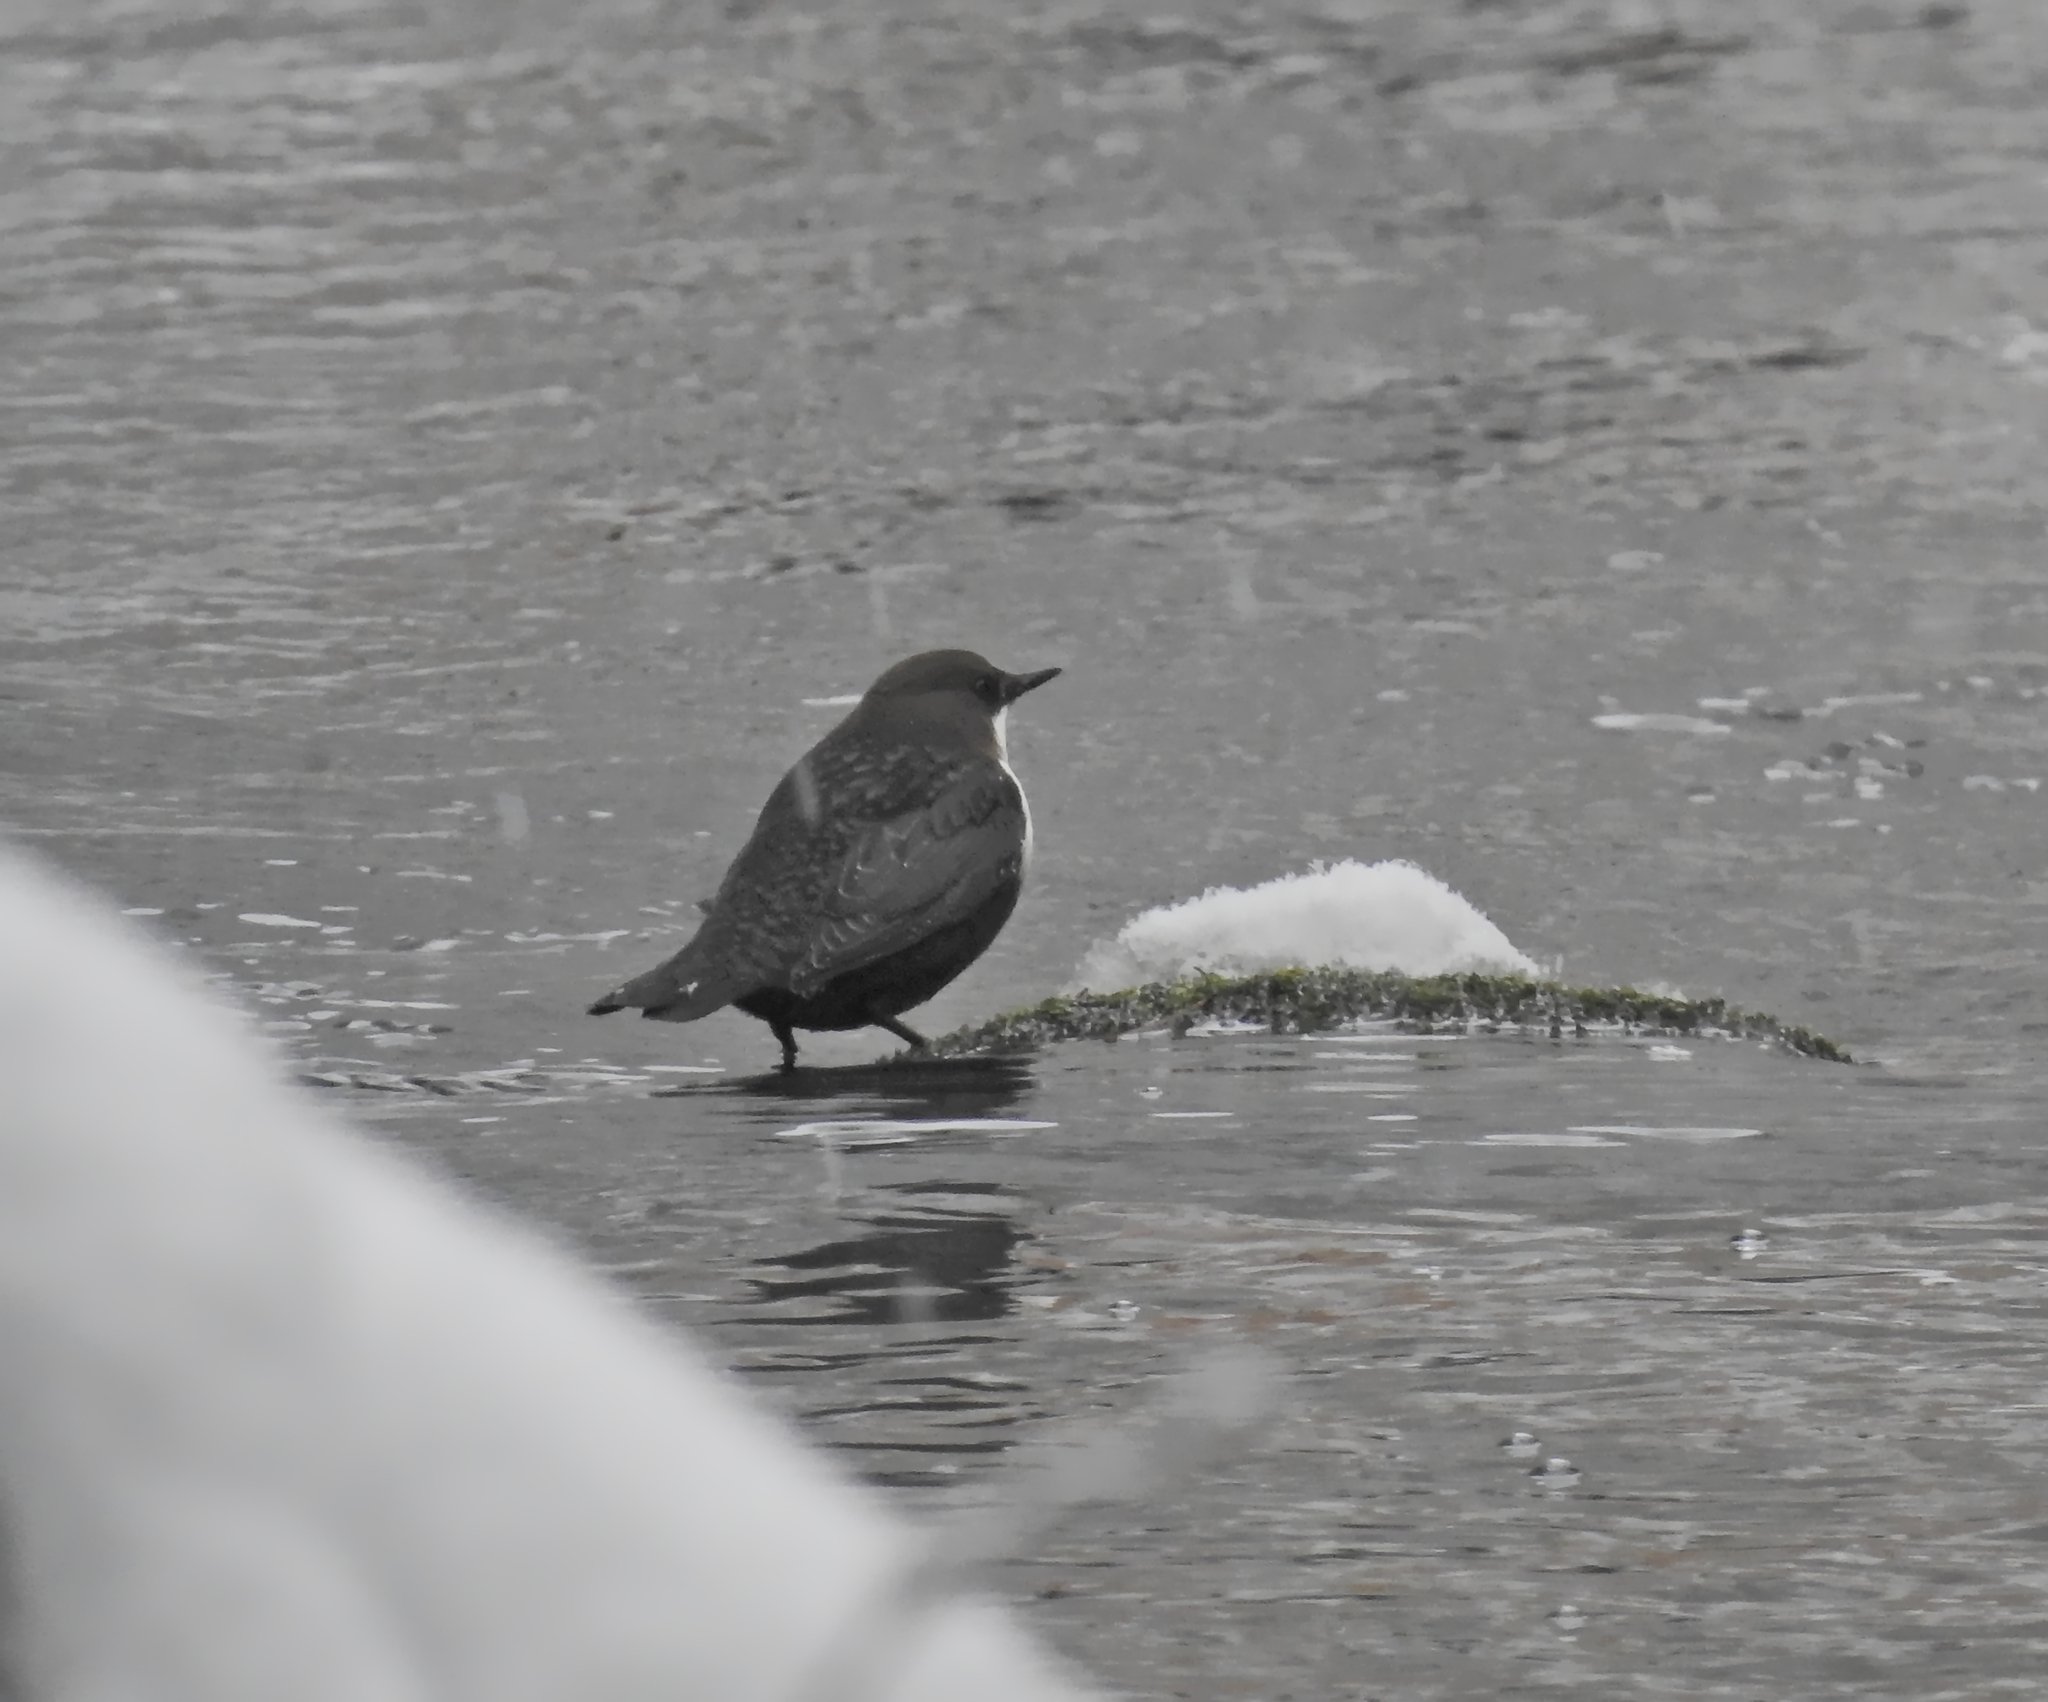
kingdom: Animalia
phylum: Chordata
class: Aves
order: Passeriformes
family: Cinclidae
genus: Cinclus
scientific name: Cinclus cinclus
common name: White-throated dipper
